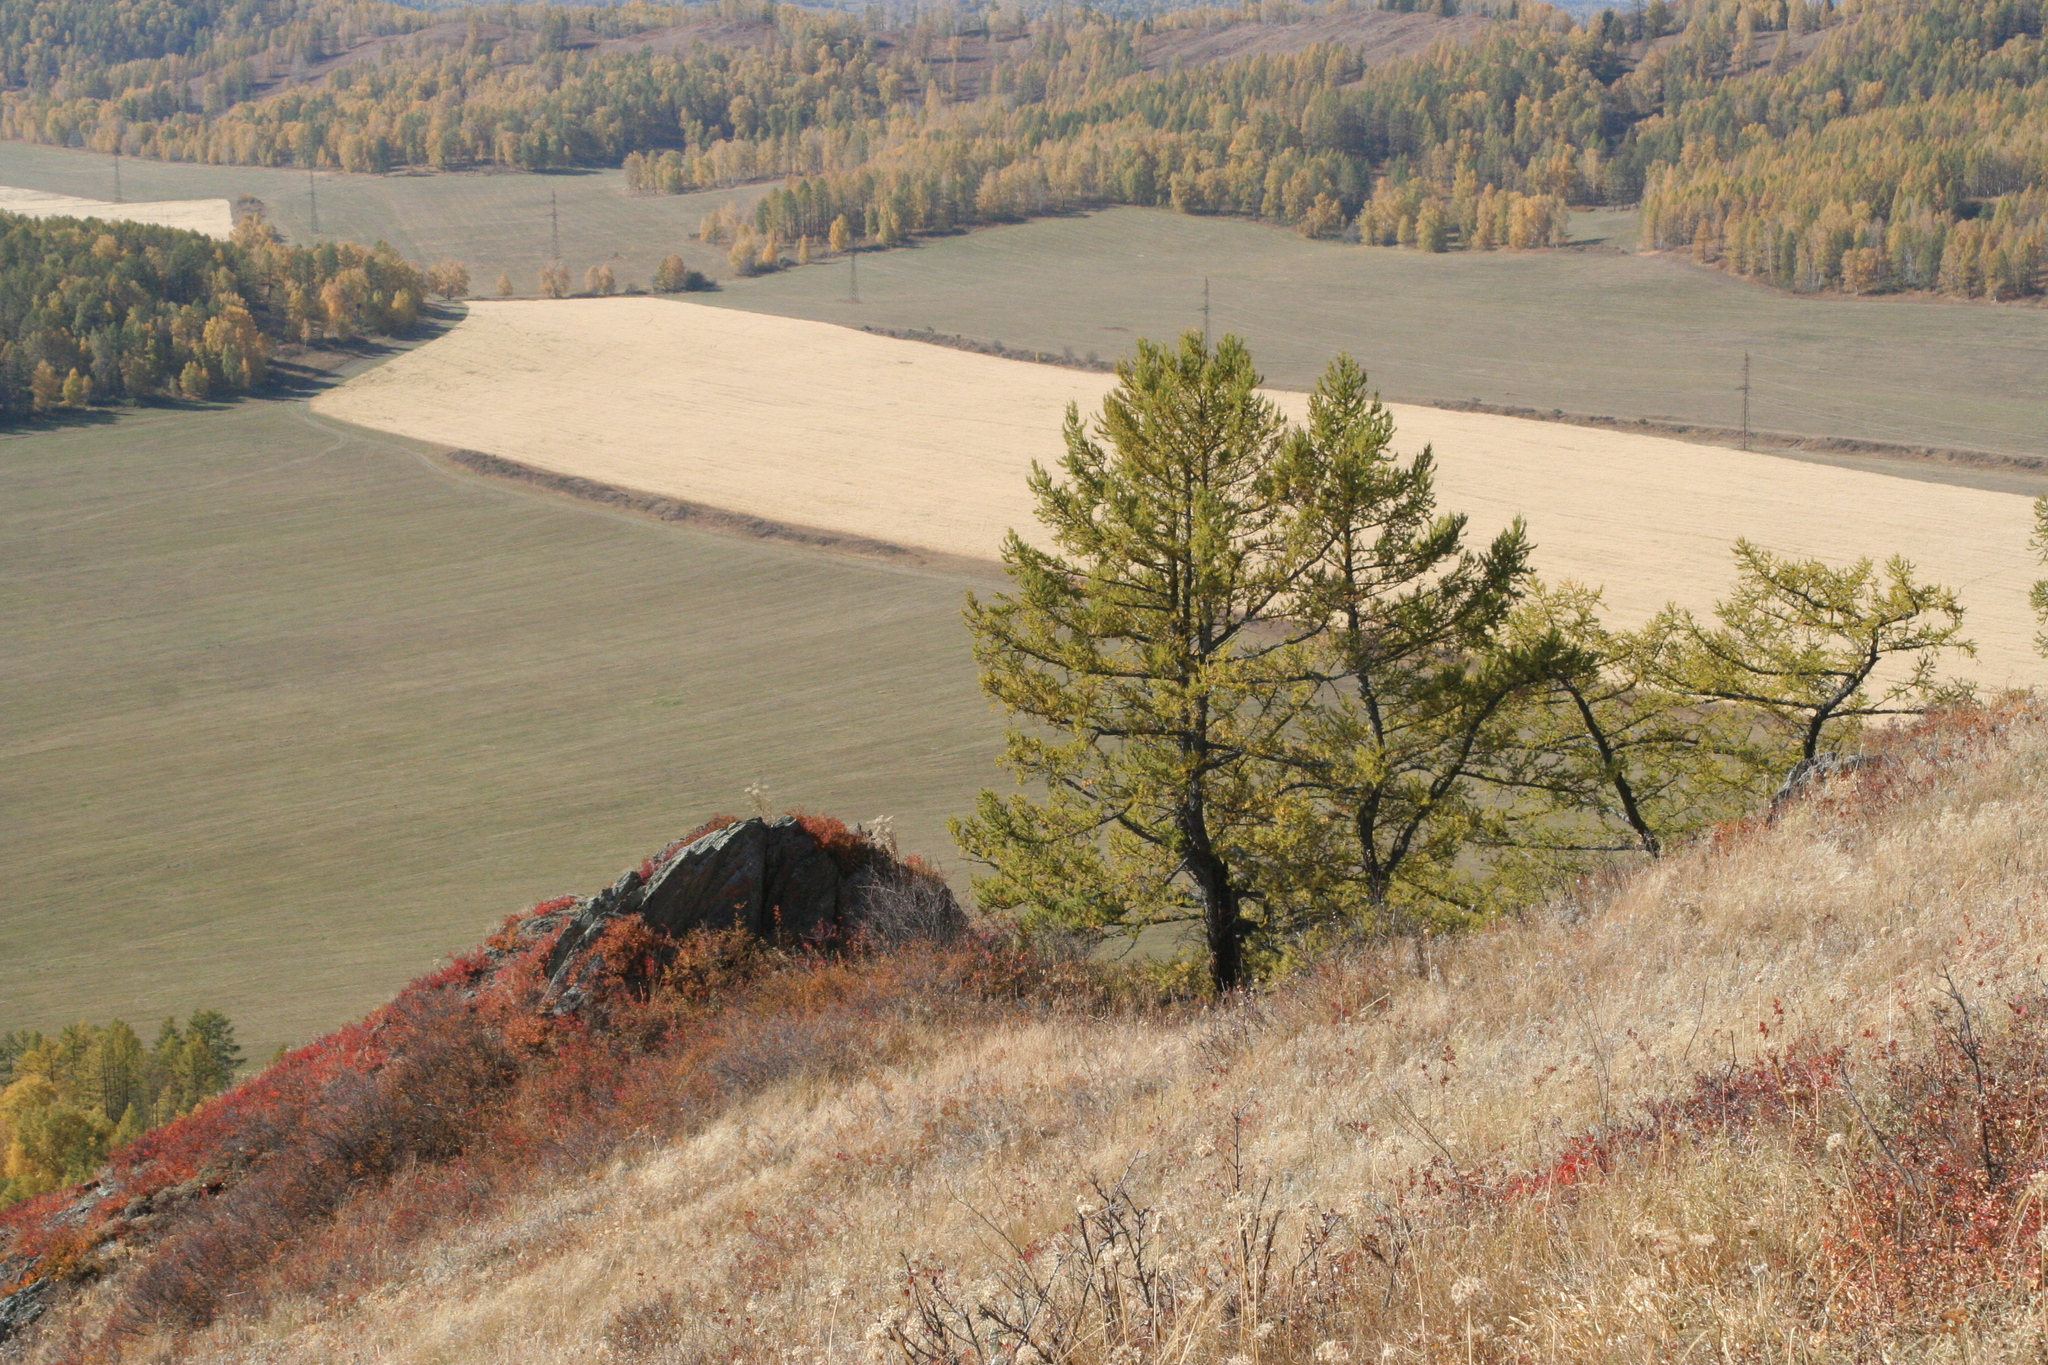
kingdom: Plantae
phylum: Tracheophyta
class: Pinopsida
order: Pinales
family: Pinaceae
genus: Larix
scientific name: Larix sibirica
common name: Siberian larch
